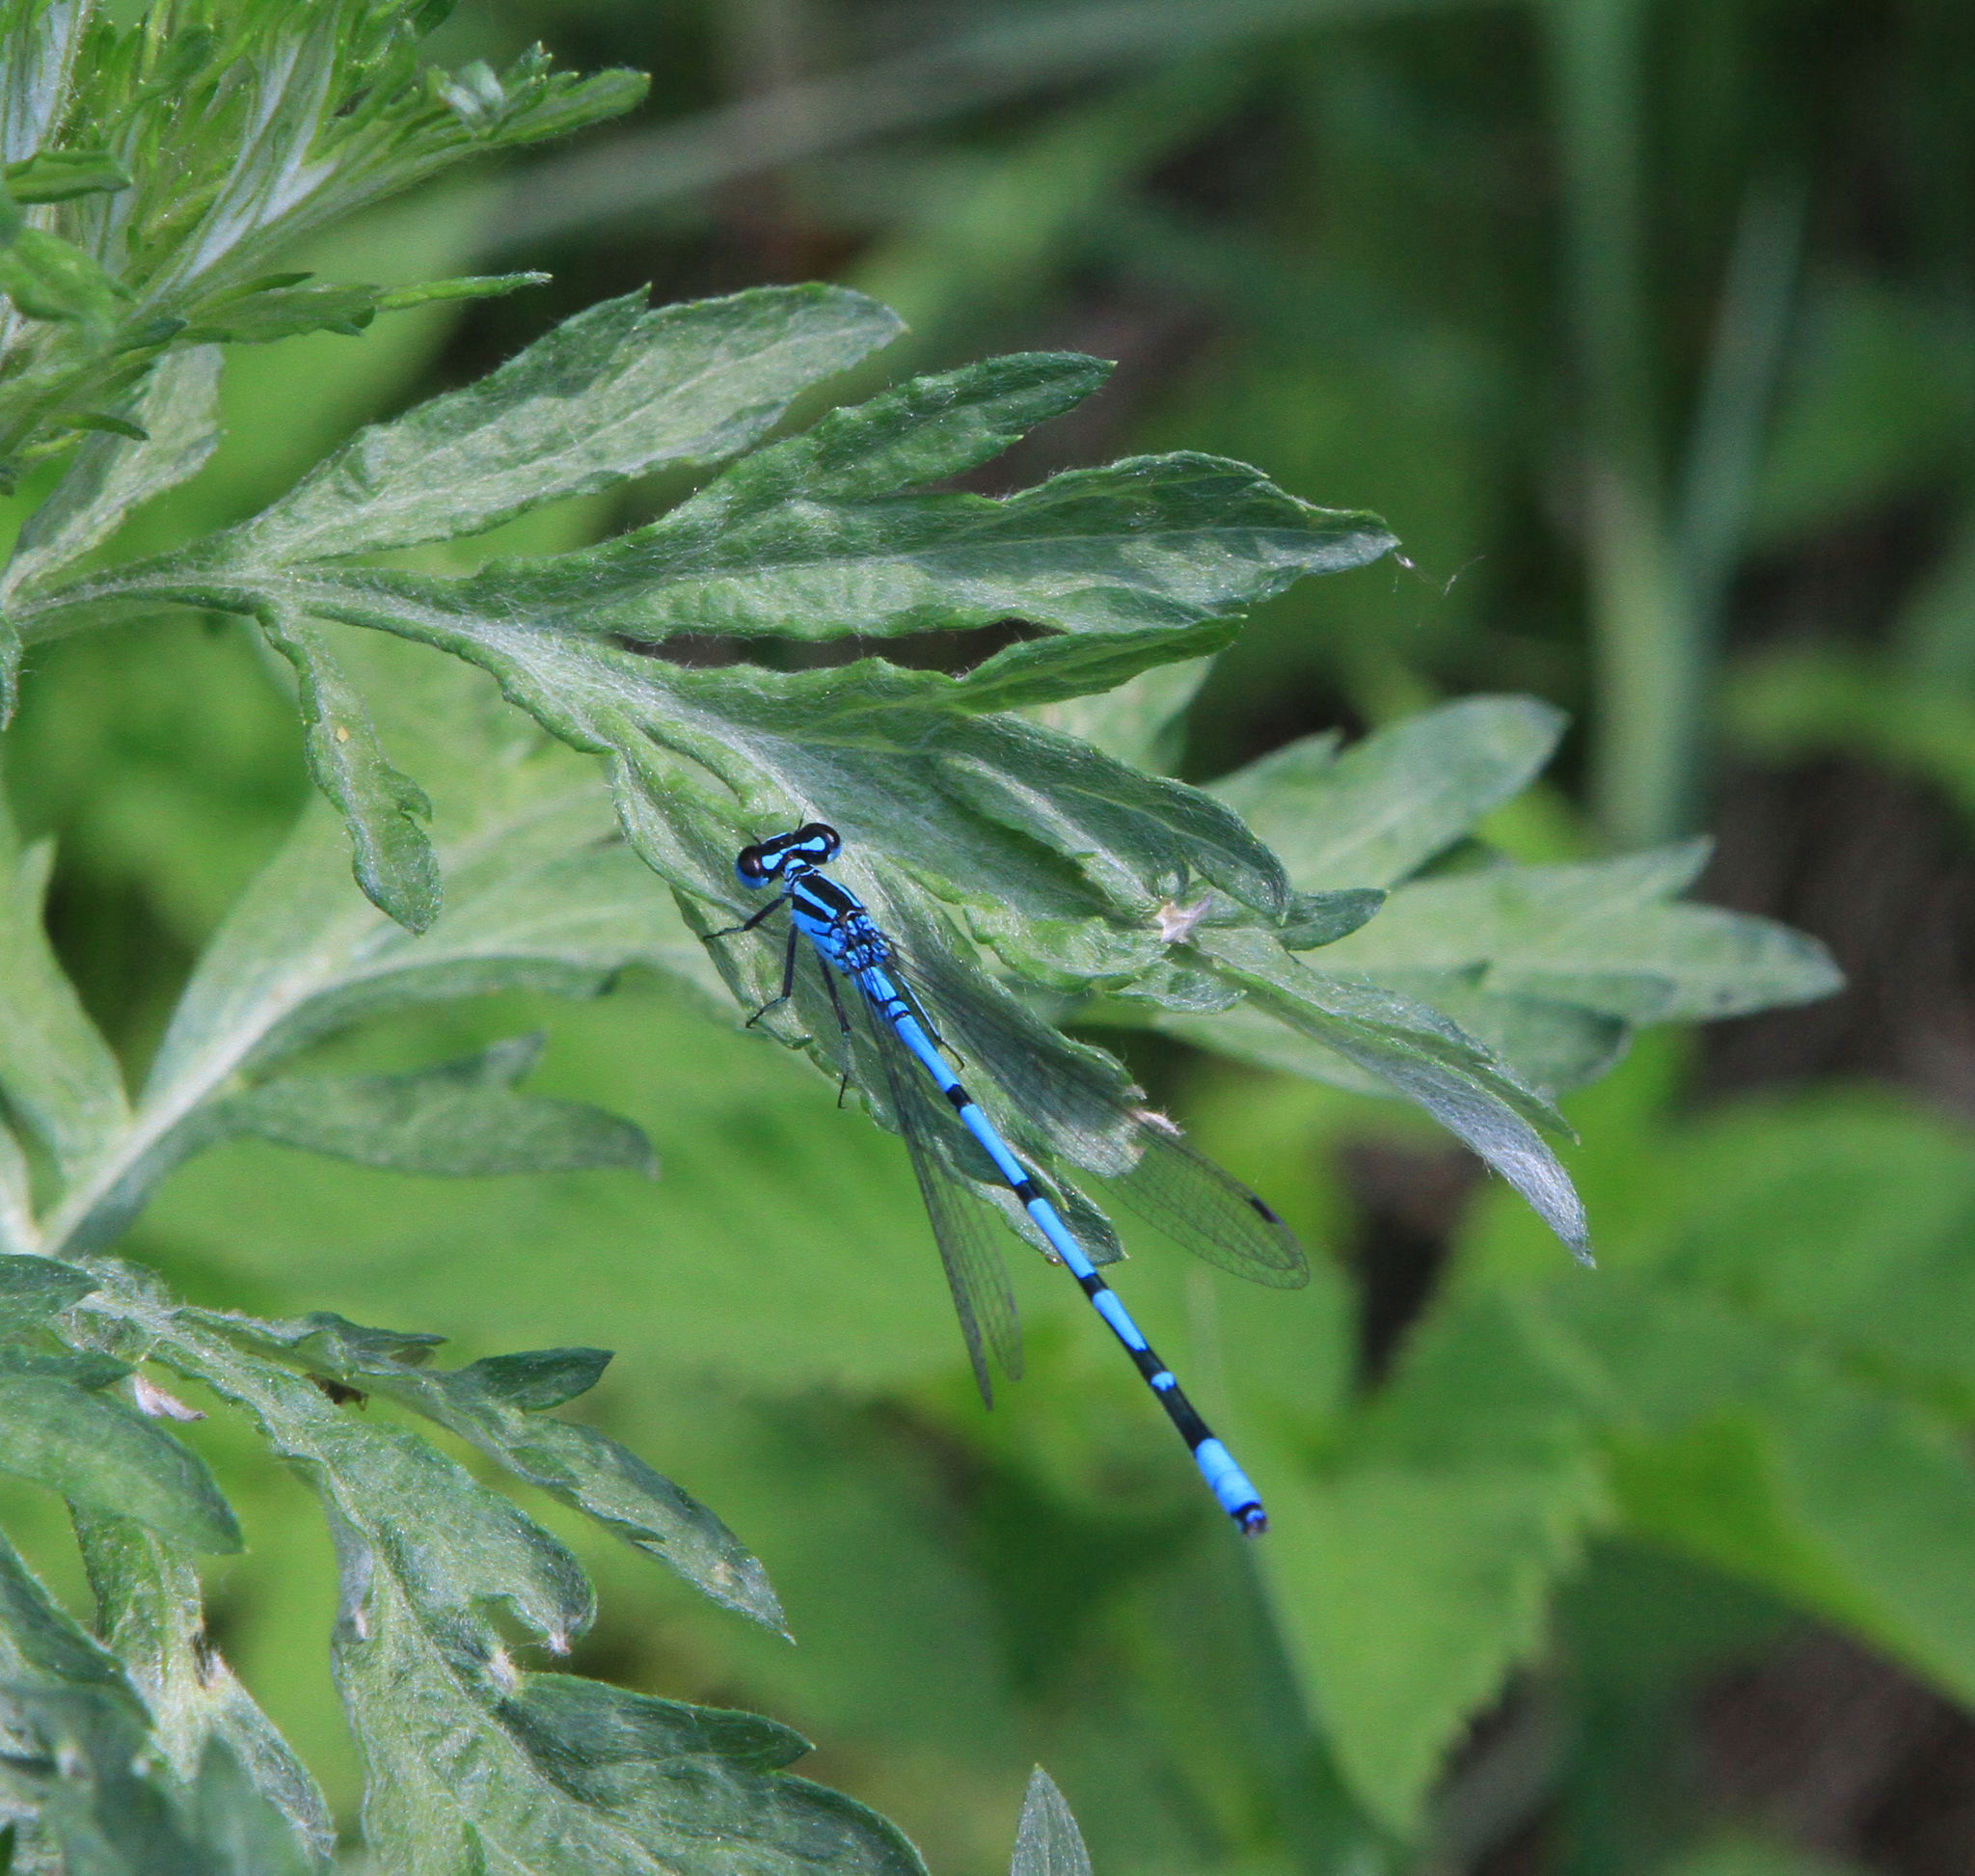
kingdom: Animalia
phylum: Arthropoda
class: Insecta
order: Odonata
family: Coenagrionidae
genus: Coenagrion
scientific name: Coenagrion puella
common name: Azure damselfly
